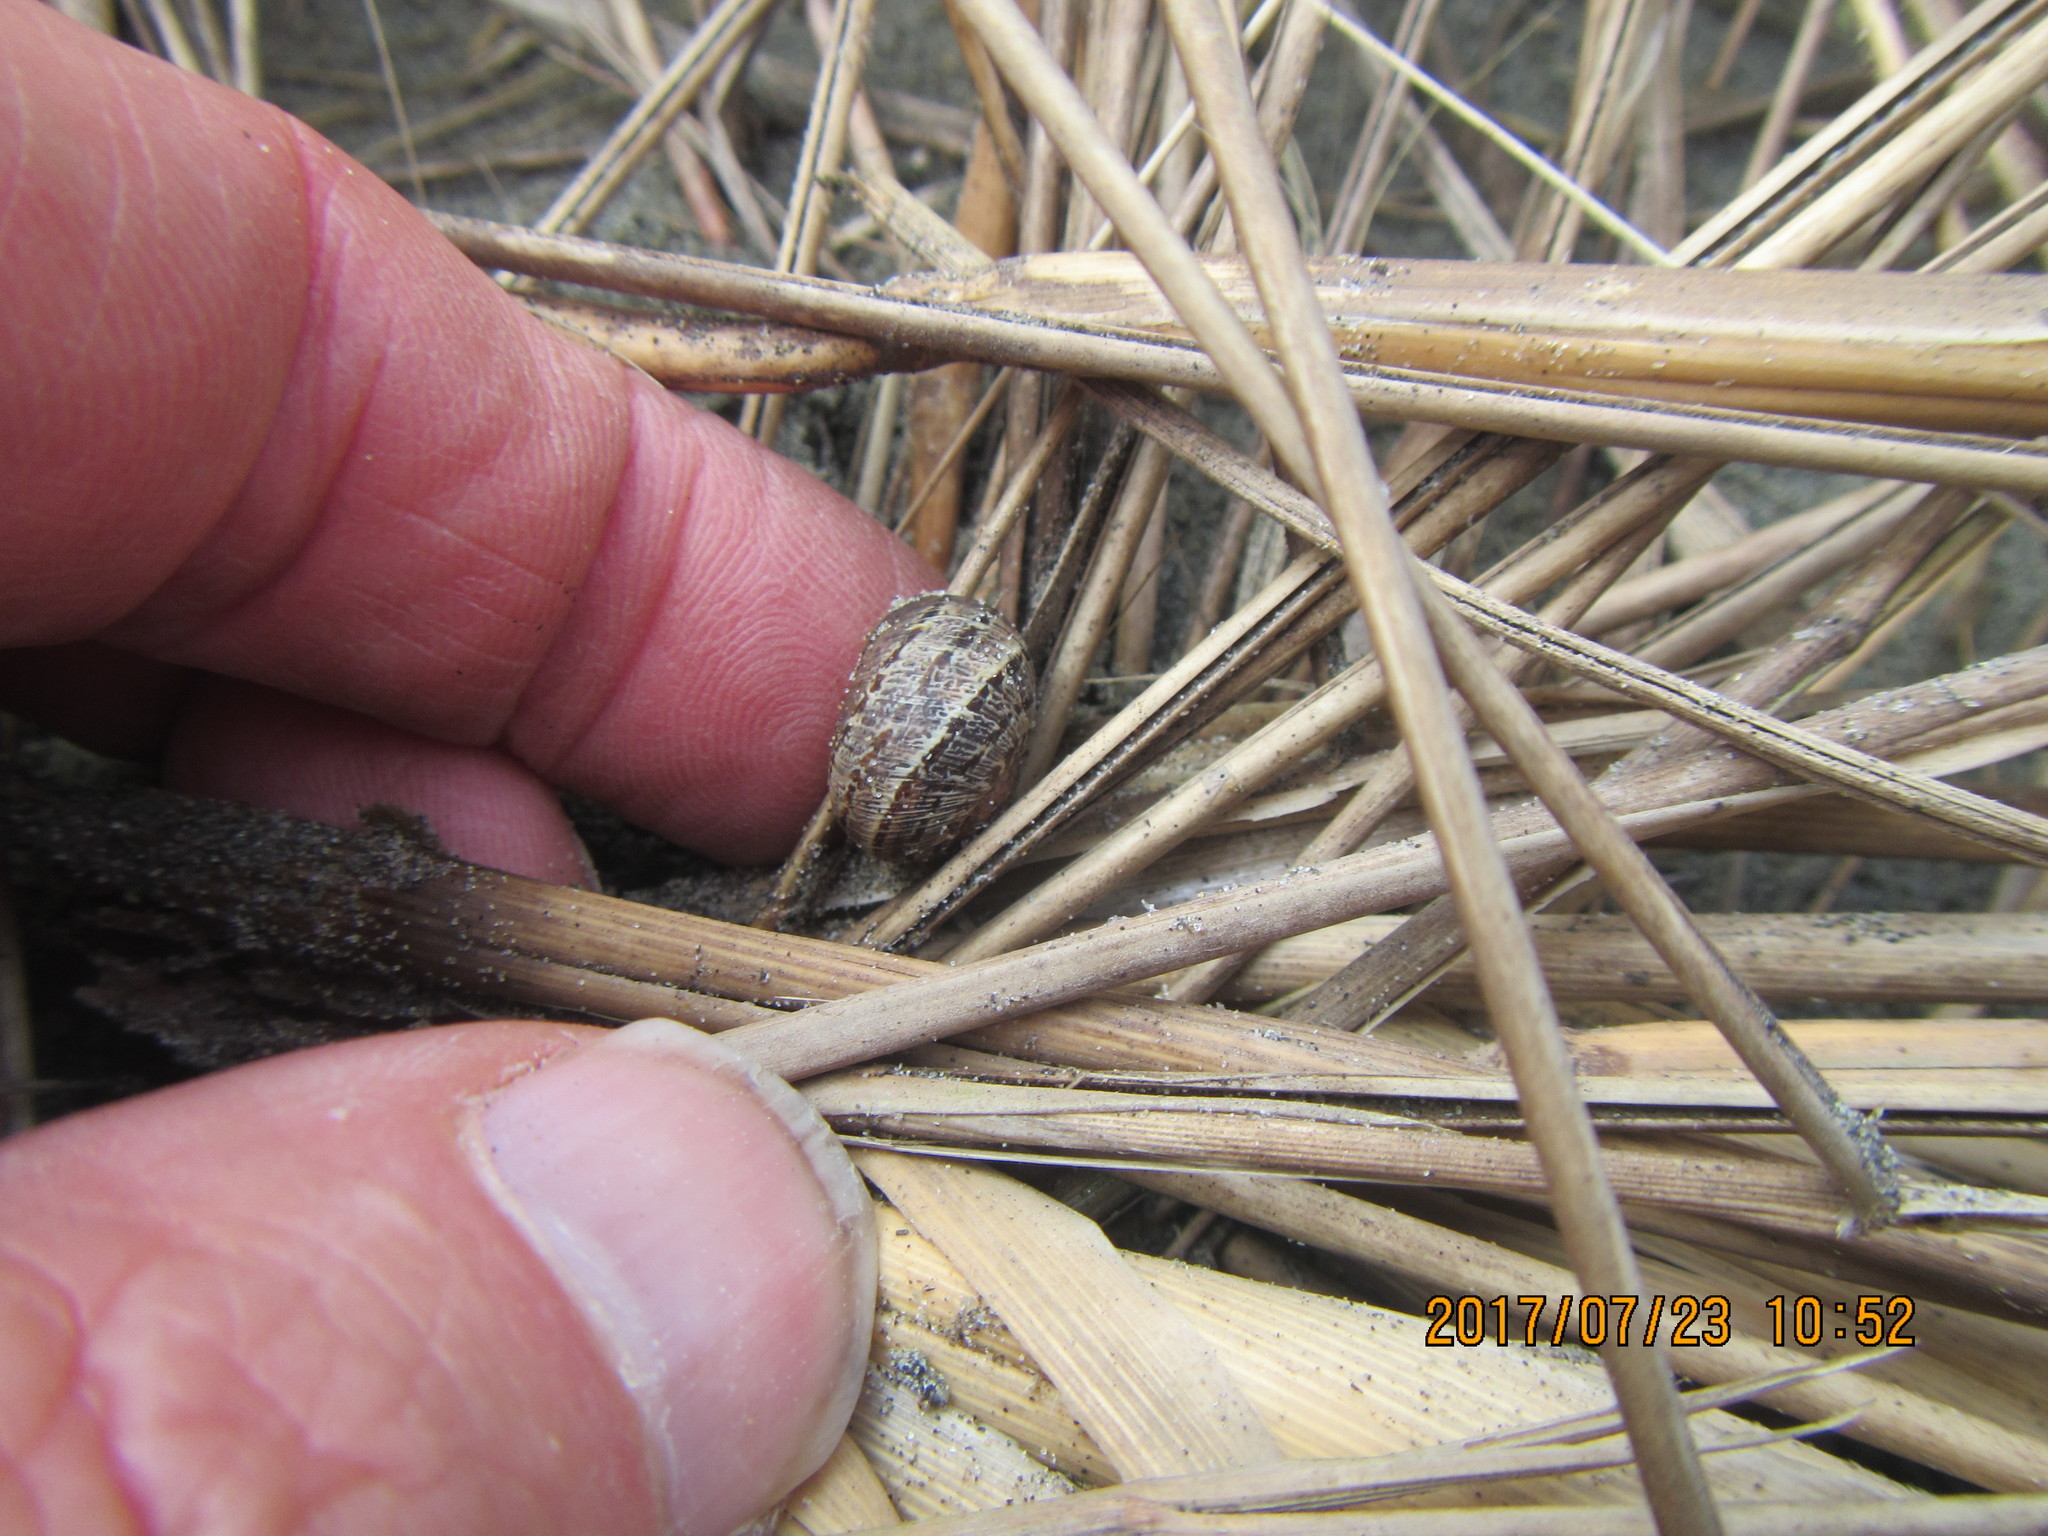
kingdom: Animalia
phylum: Mollusca
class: Gastropoda
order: Stylommatophora
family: Helicidae
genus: Cornu
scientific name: Cornu aspersum
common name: Brown garden snail
